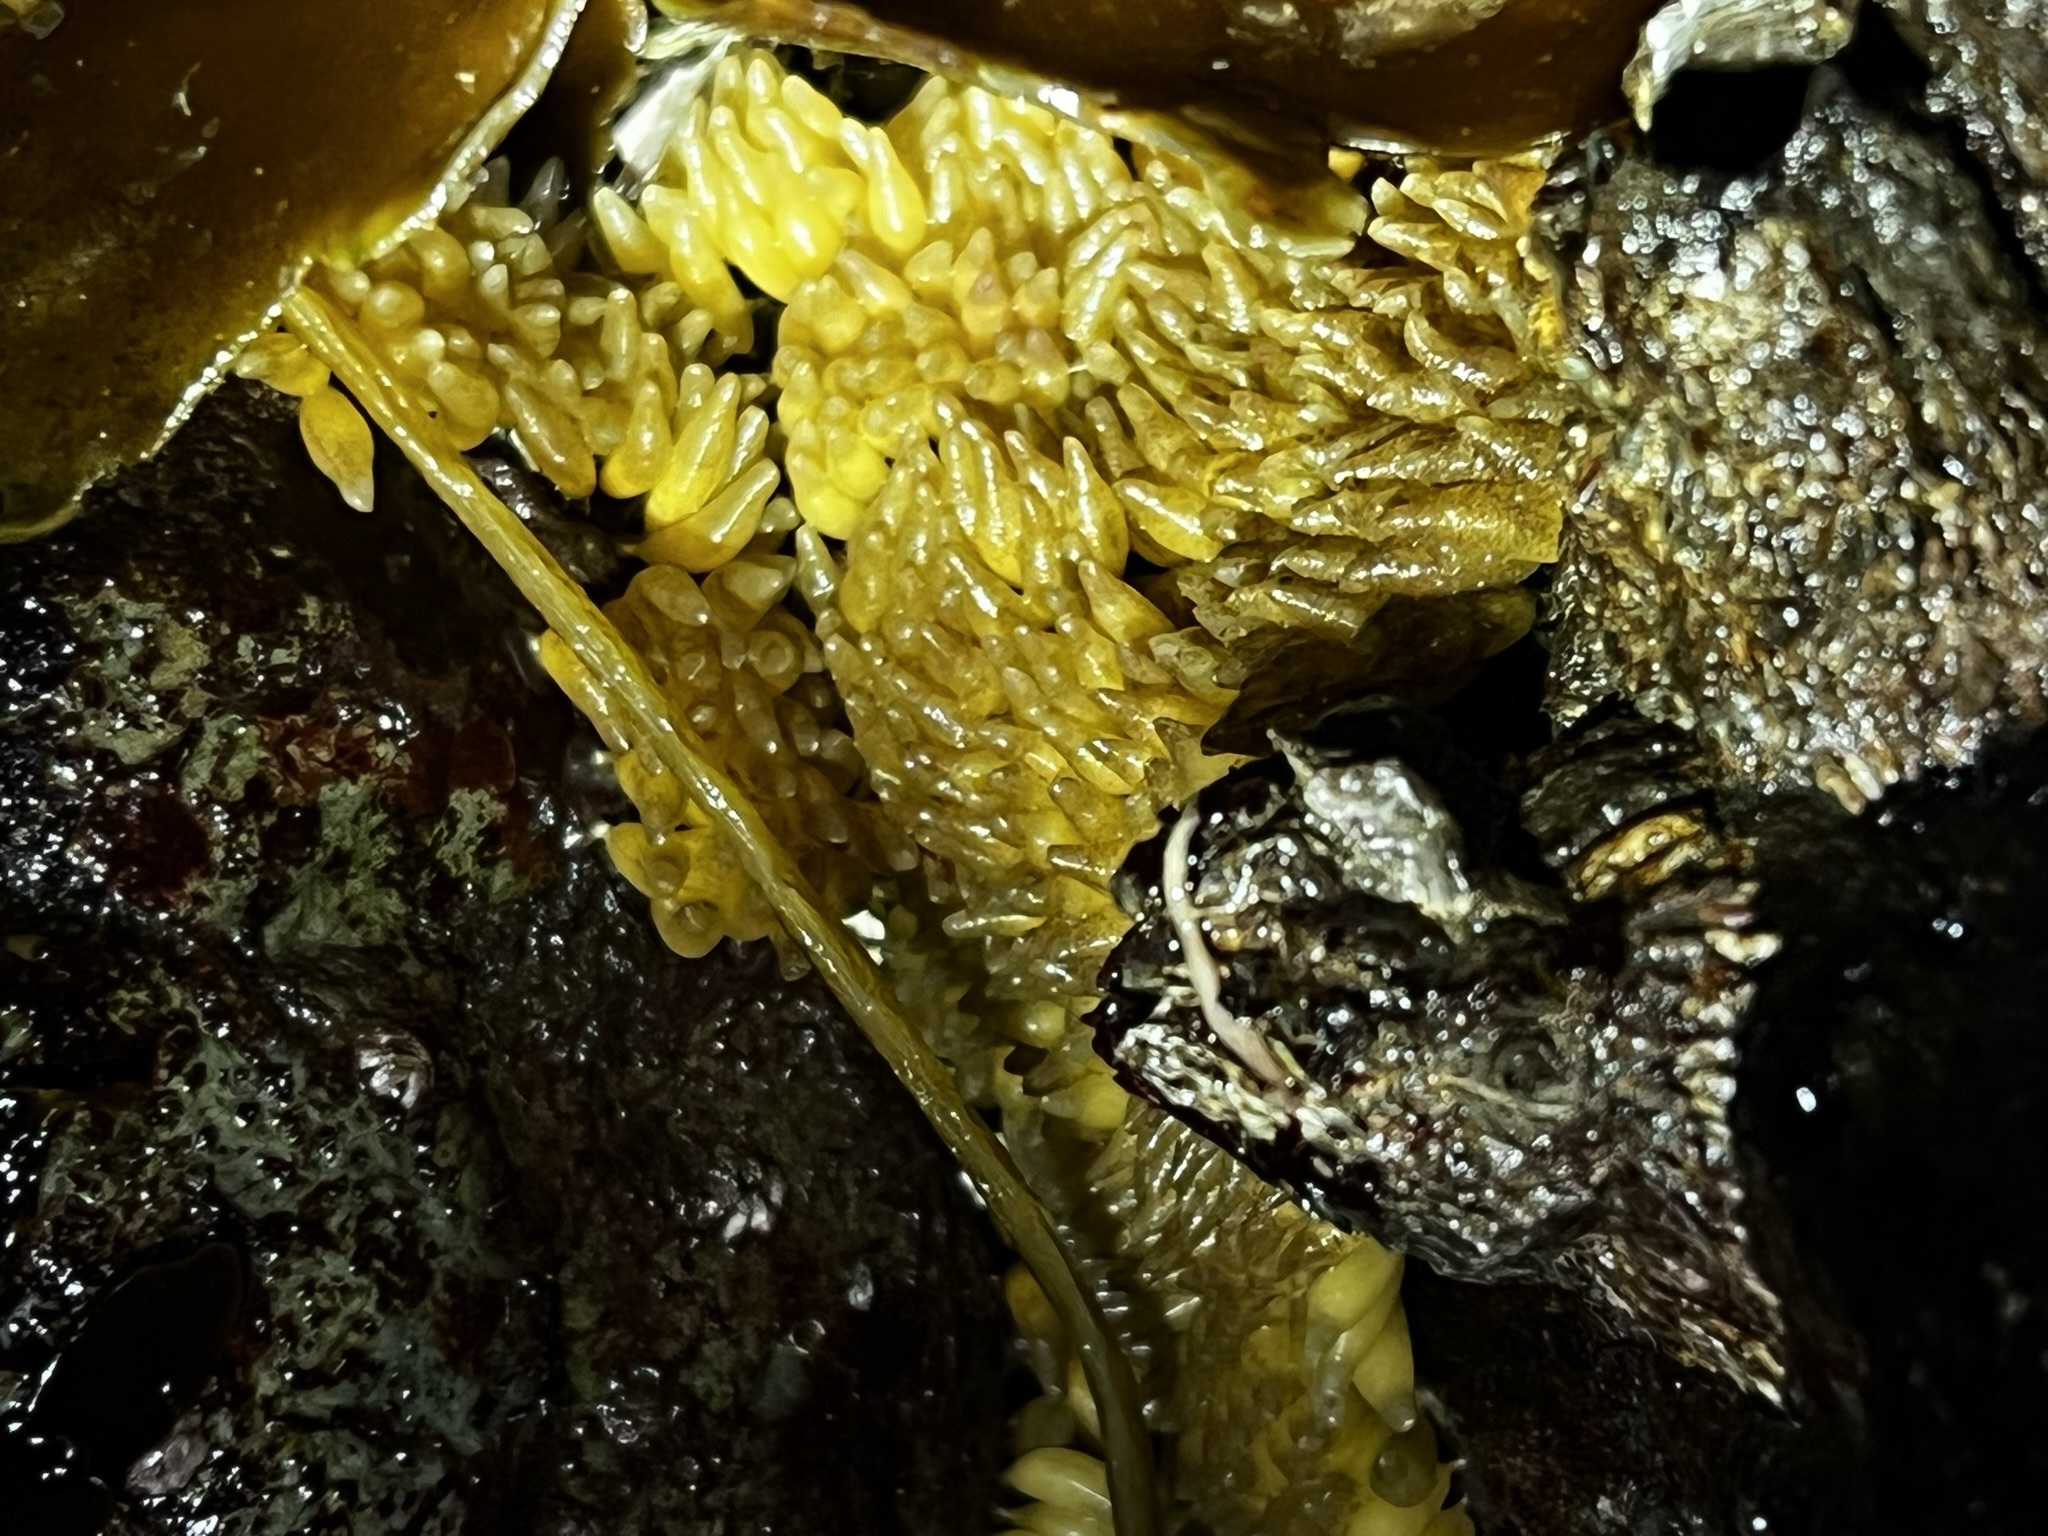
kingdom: Animalia
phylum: Mollusca
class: Gastropoda
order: Neogastropoda
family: Muricidae
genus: Nucella
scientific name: Nucella lamellosa
